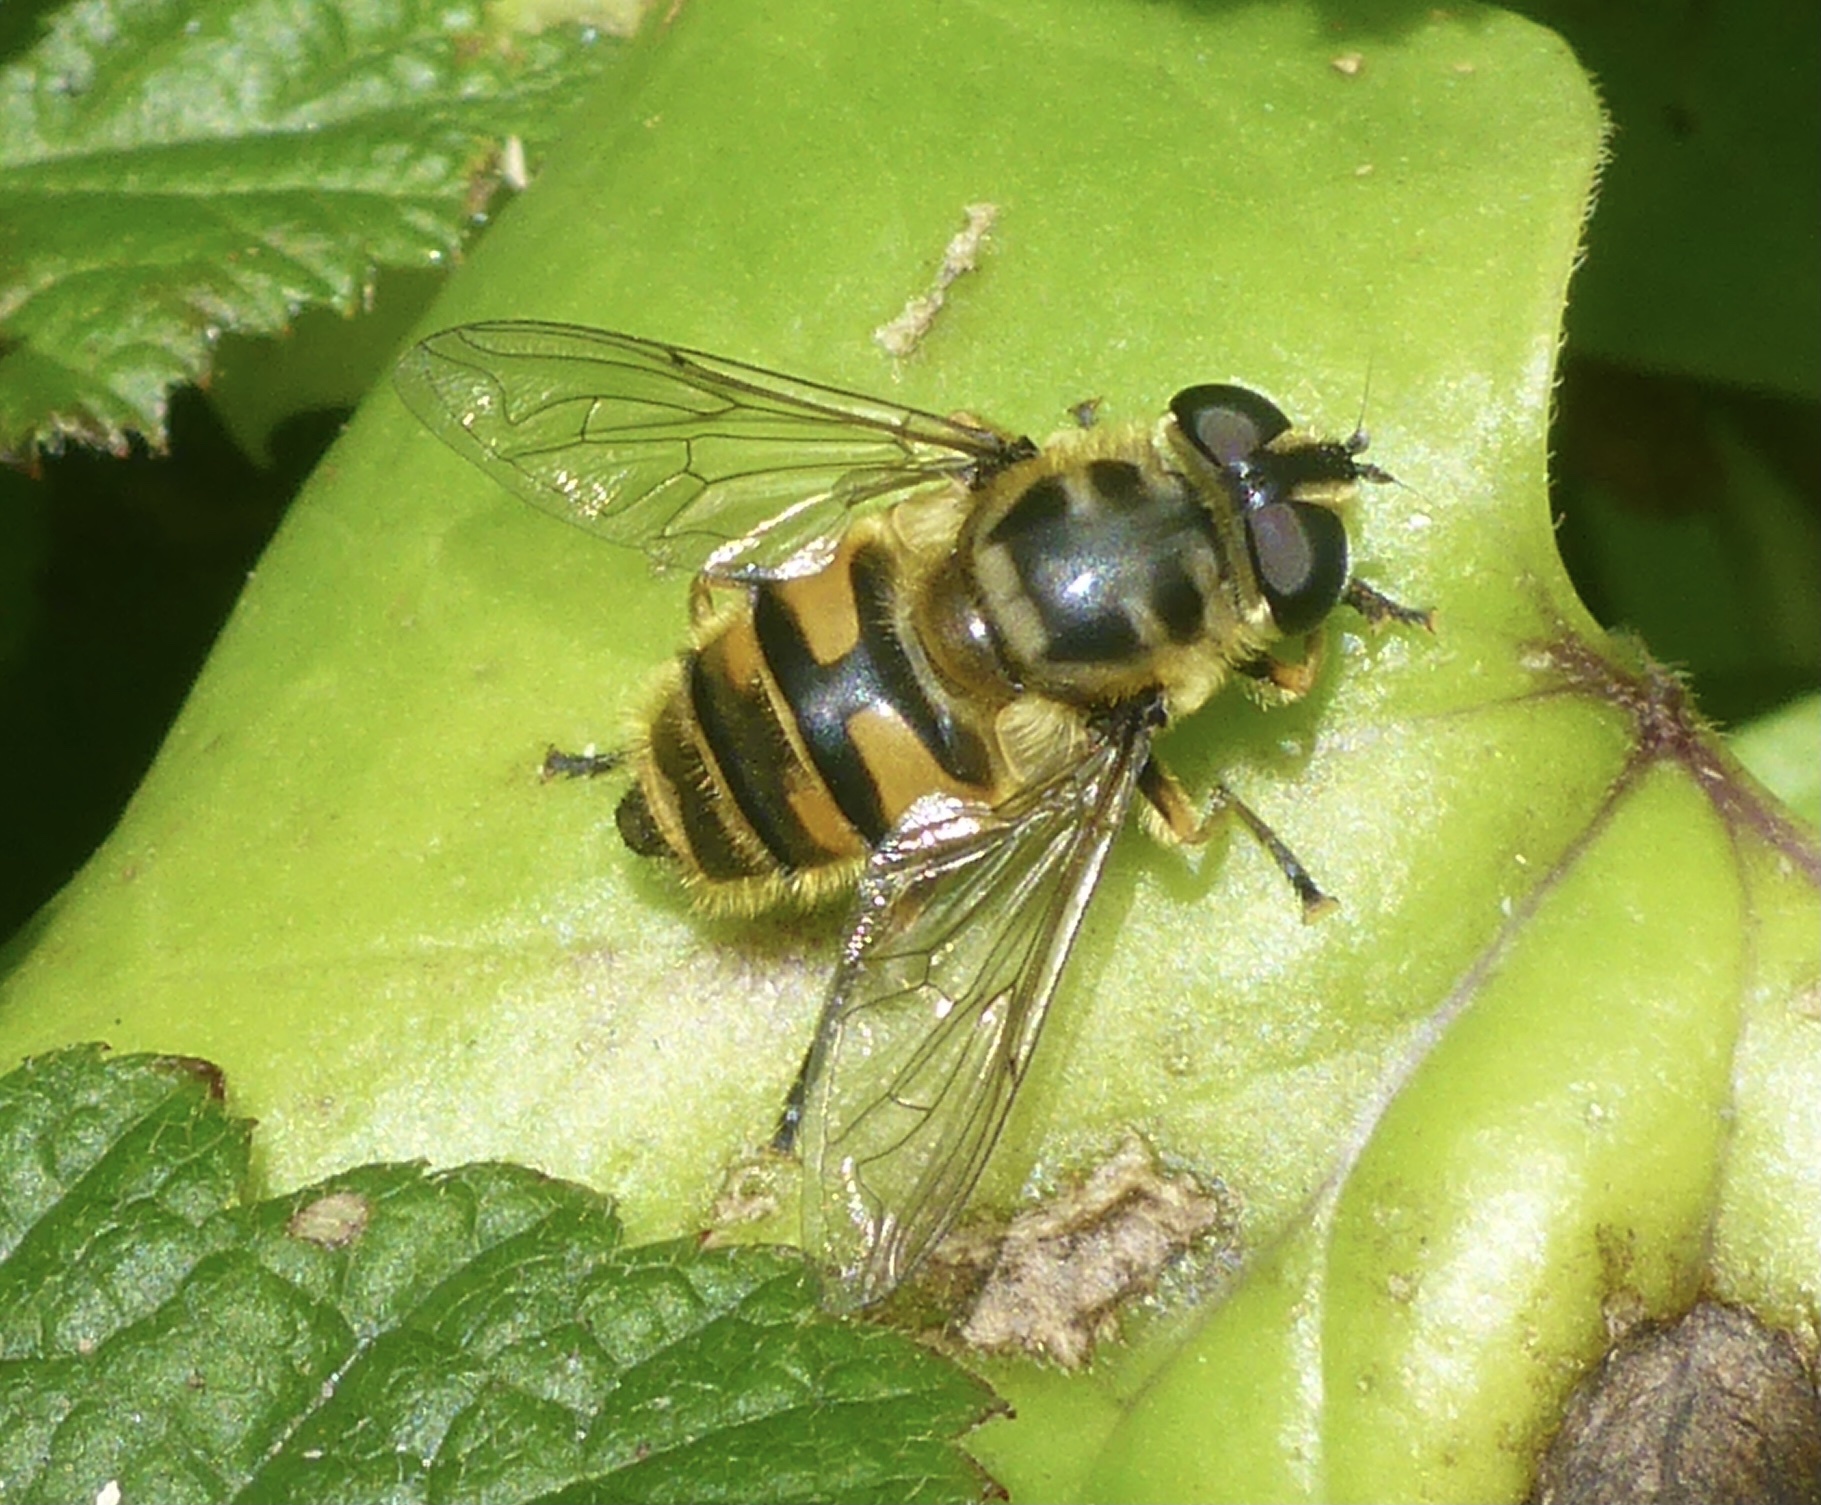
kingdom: Animalia
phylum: Arthropoda
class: Insecta
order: Diptera
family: Syrphidae
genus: Myathropa
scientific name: Myathropa florea
